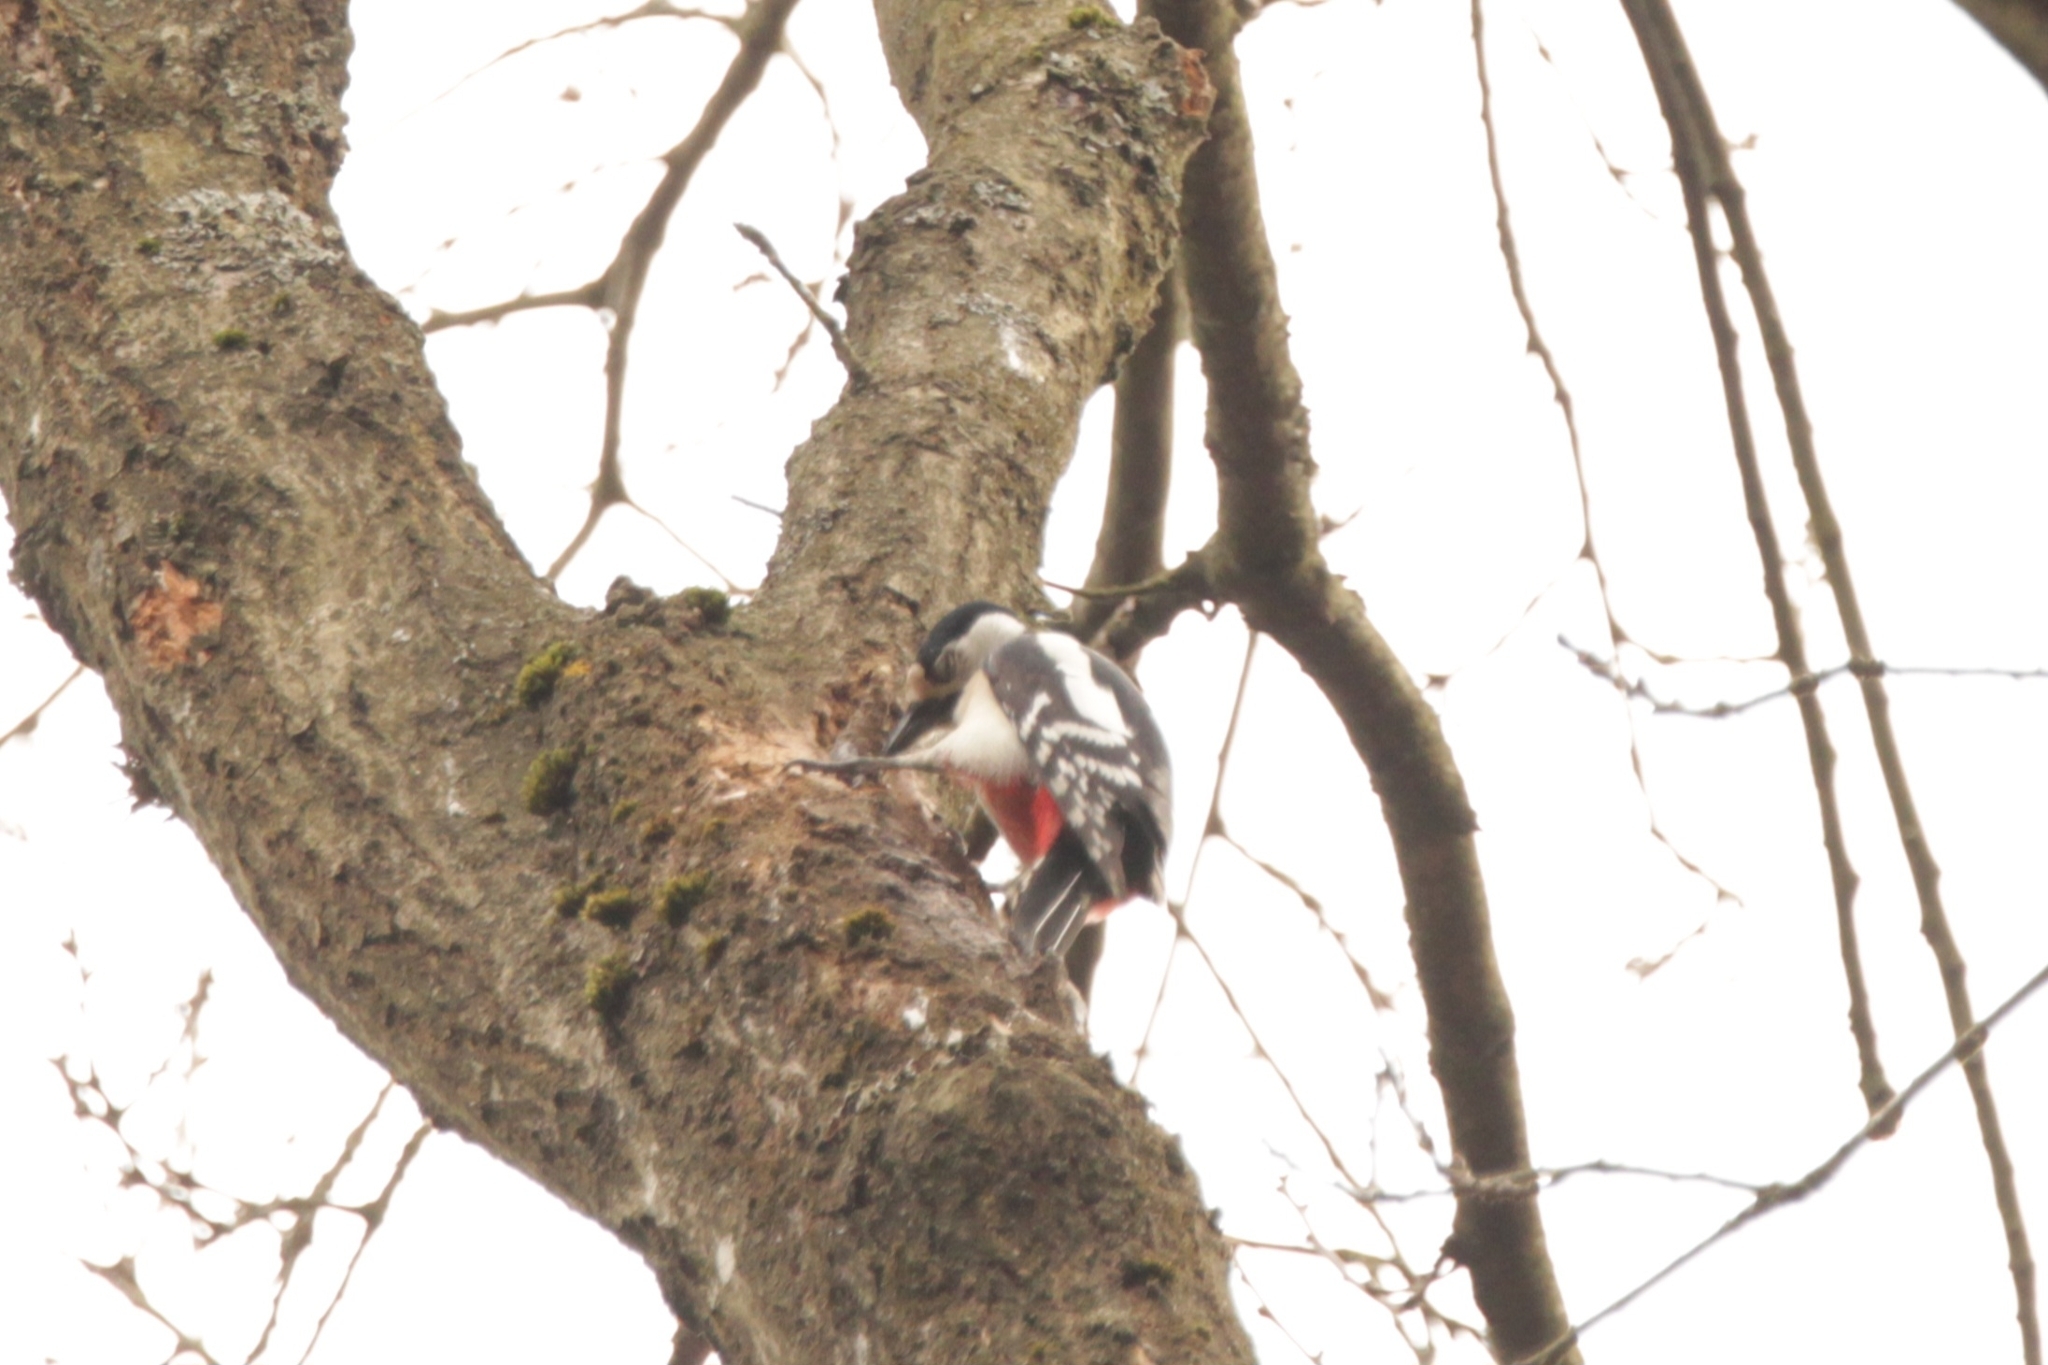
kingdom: Animalia
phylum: Chordata
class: Aves
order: Piciformes
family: Picidae
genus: Dendrocopos
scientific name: Dendrocopos major
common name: Great spotted woodpecker
